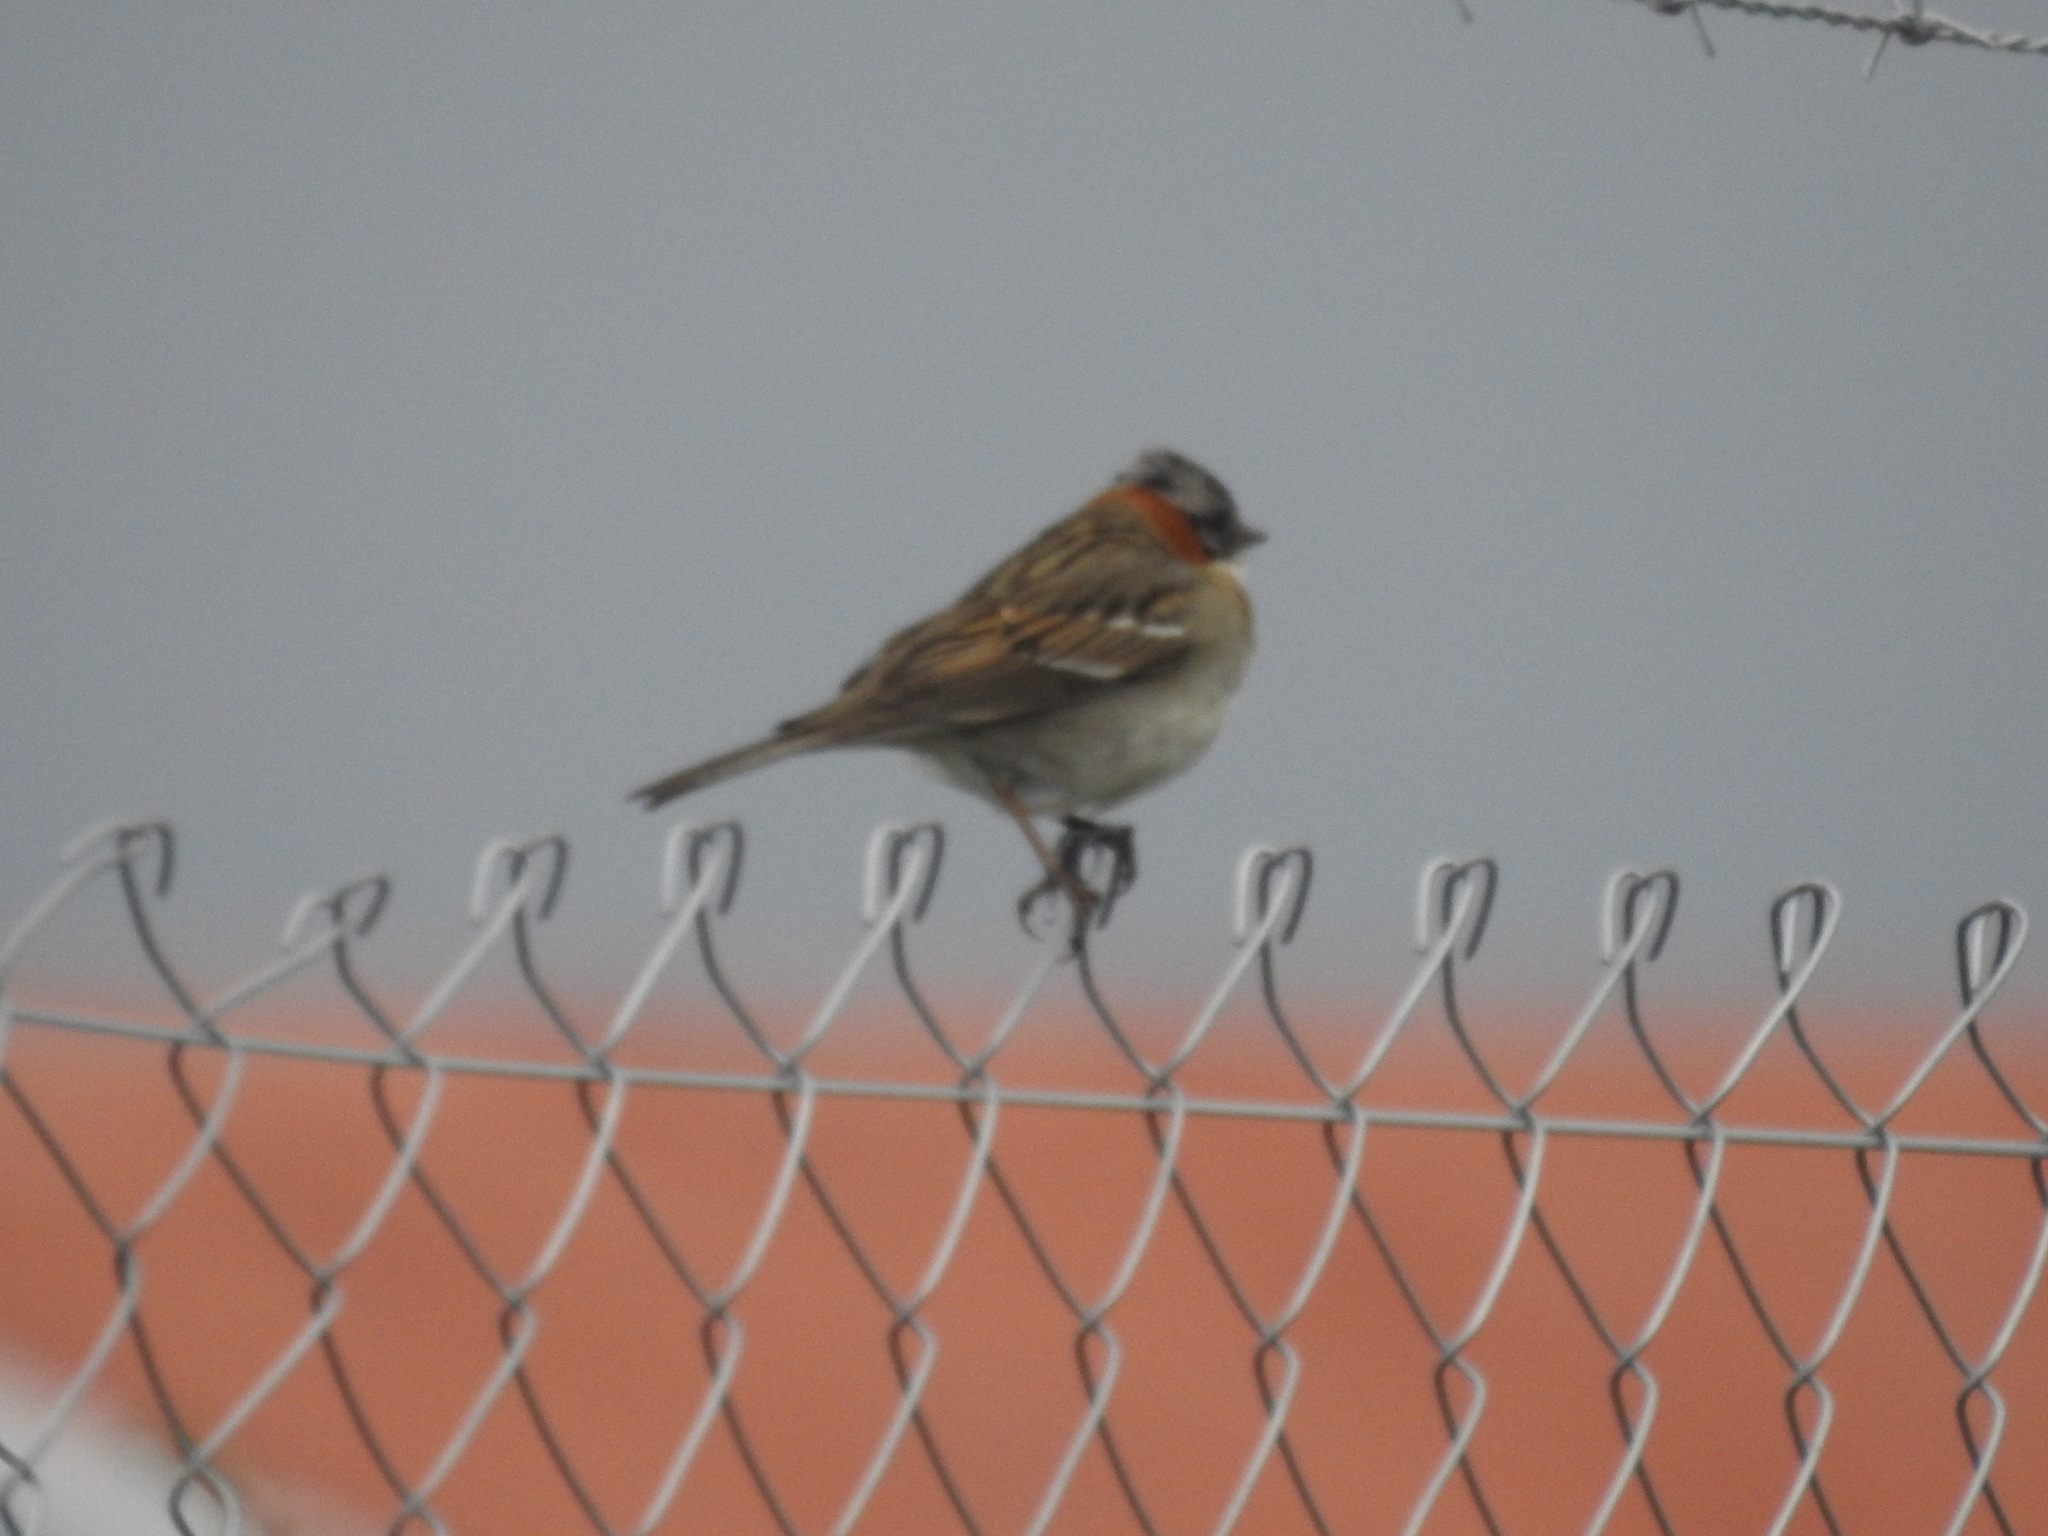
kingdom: Animalia
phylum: Chordata
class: Aves
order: Passeriformes
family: Passerellidae
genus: Zonotrichia
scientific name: Zonotrichia capensis
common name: Rufous-collared sparrow
